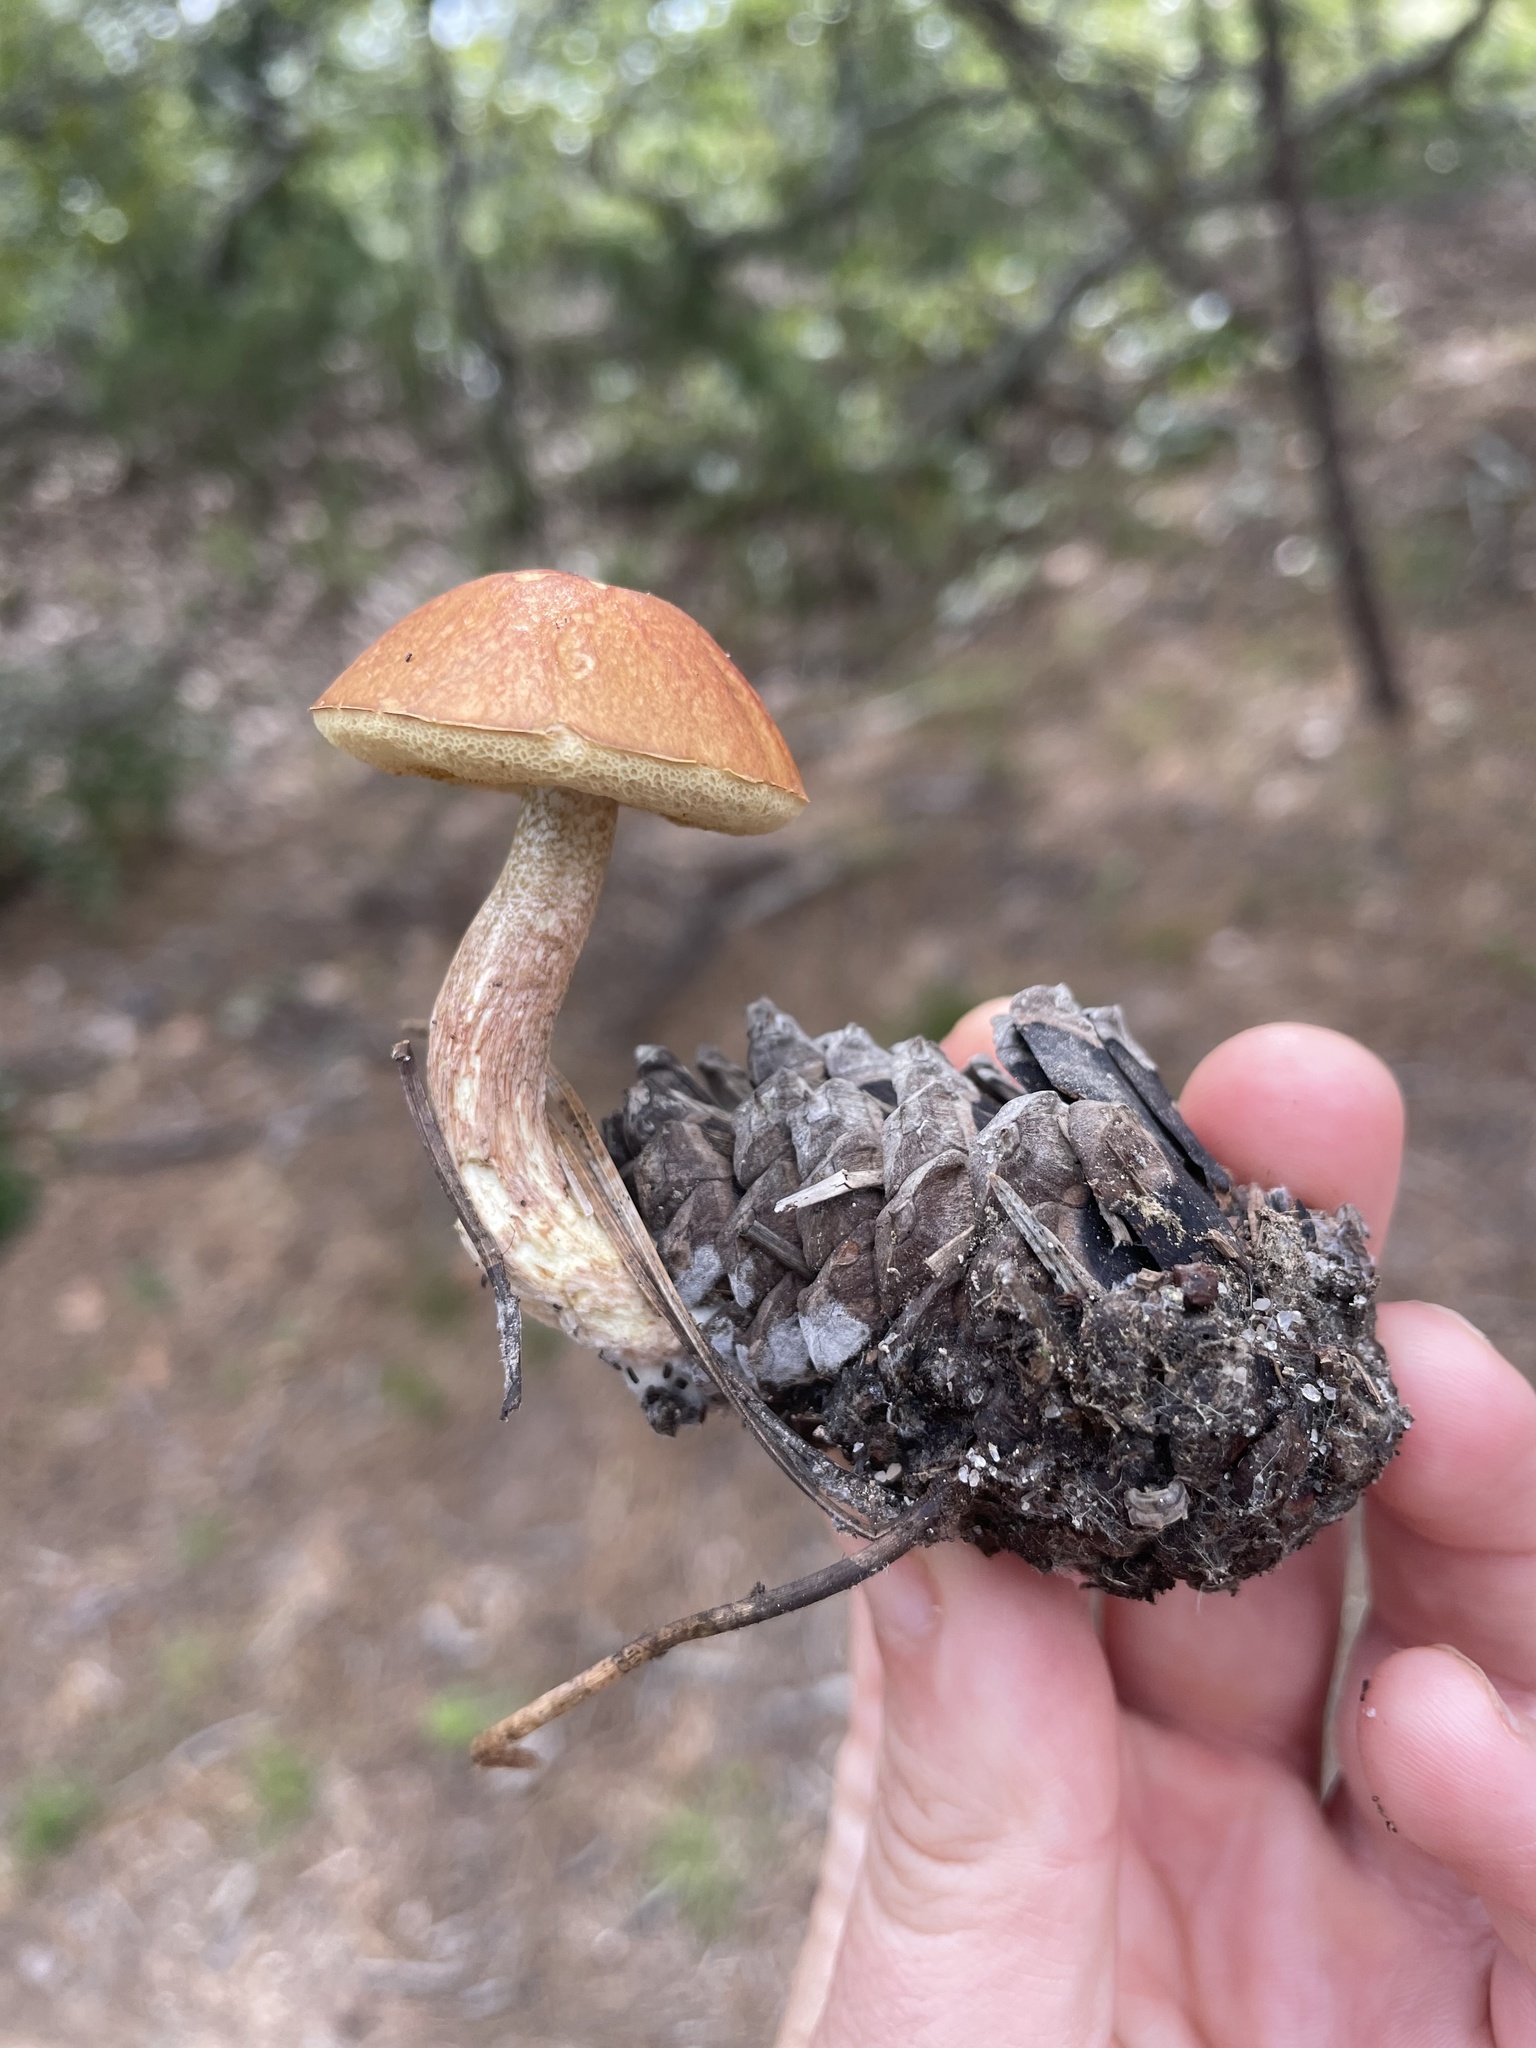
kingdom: Fungi
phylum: Basidiomycota
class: Agaricomycetes
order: Boletales
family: Boletaceae
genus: Leccinum
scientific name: Leccinum longicurvipes
